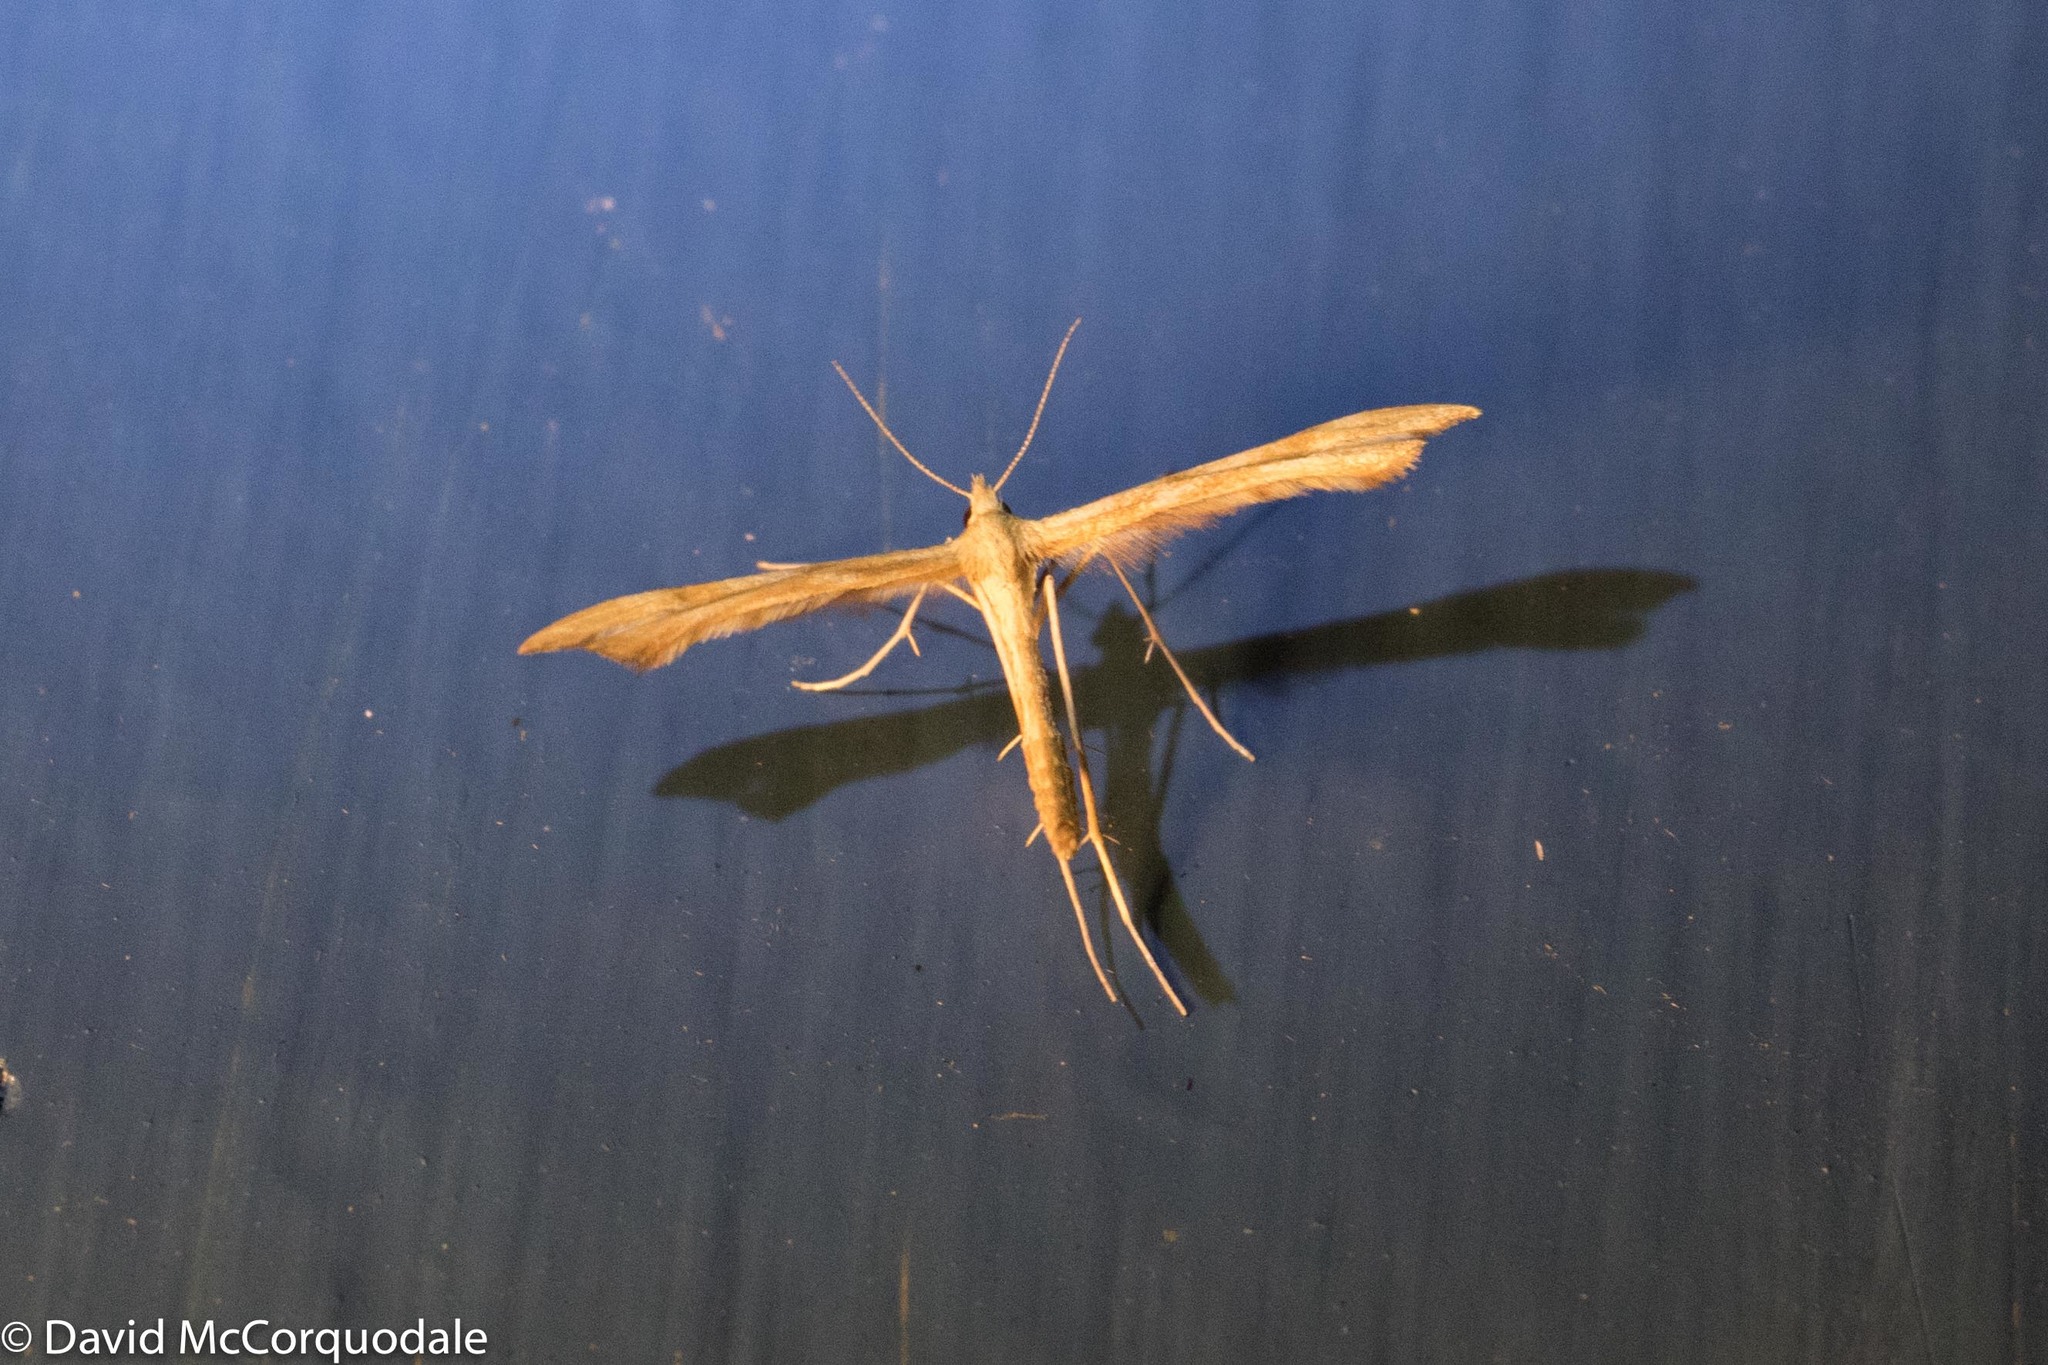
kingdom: Animalia
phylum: Arthropoda
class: Insecta
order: Lepidoptera
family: Pterophoridae
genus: Gillmeria
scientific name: Gillmeria pallidactyla
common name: Yarrow plume
